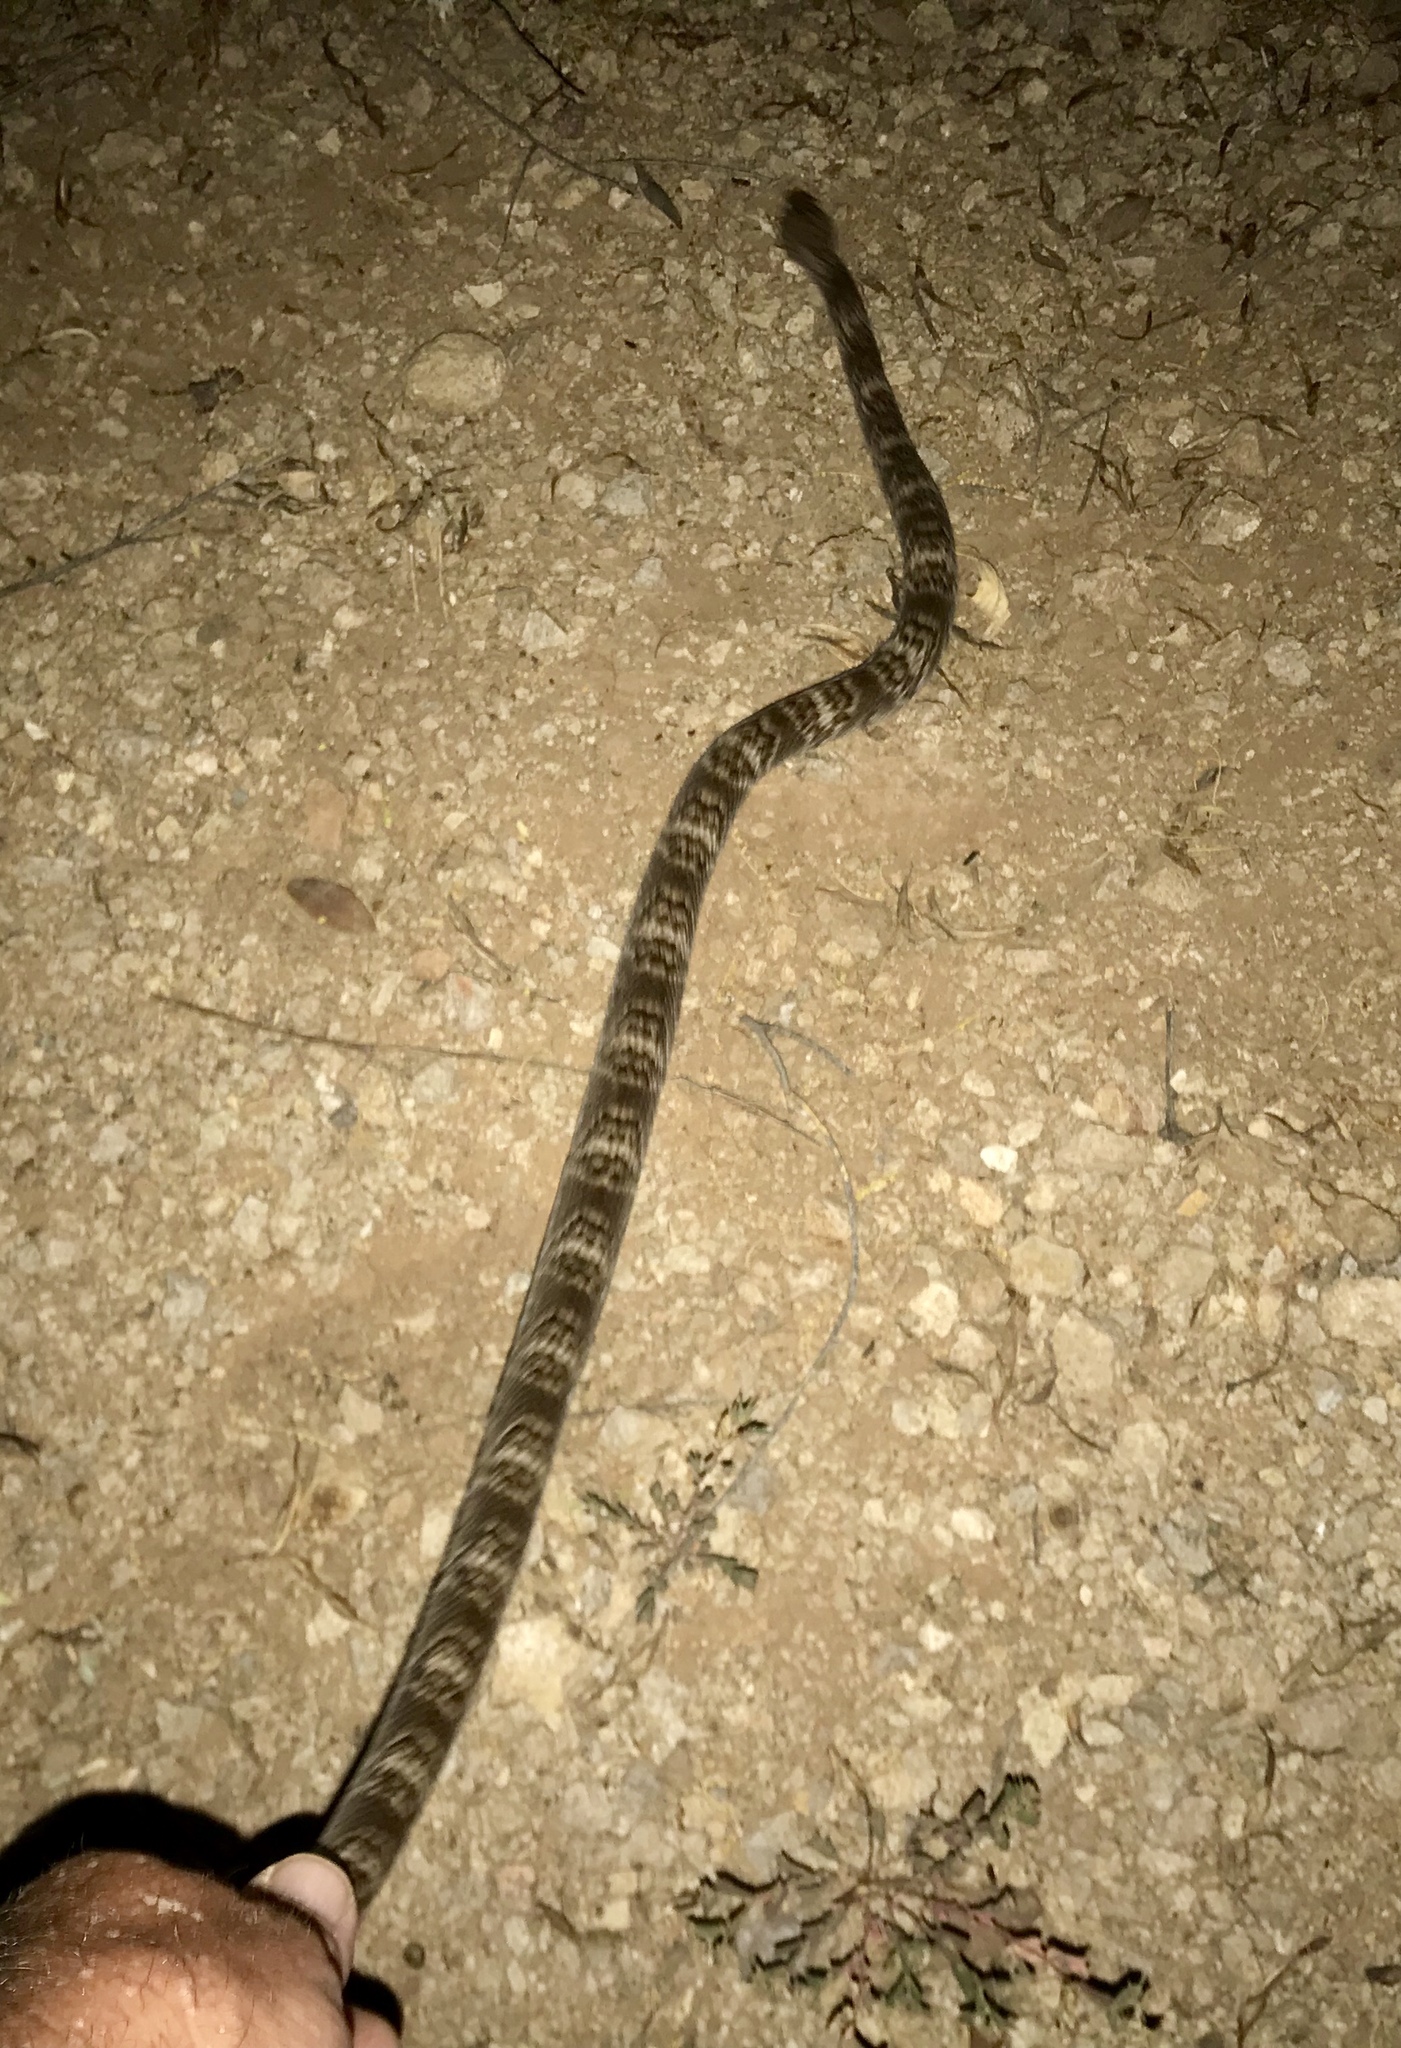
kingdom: Animalia
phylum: Chordata
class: Squamata
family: Colubridae
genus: Trimorphodon
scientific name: Trimorphodon lambda
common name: Sonoran lyre snake
